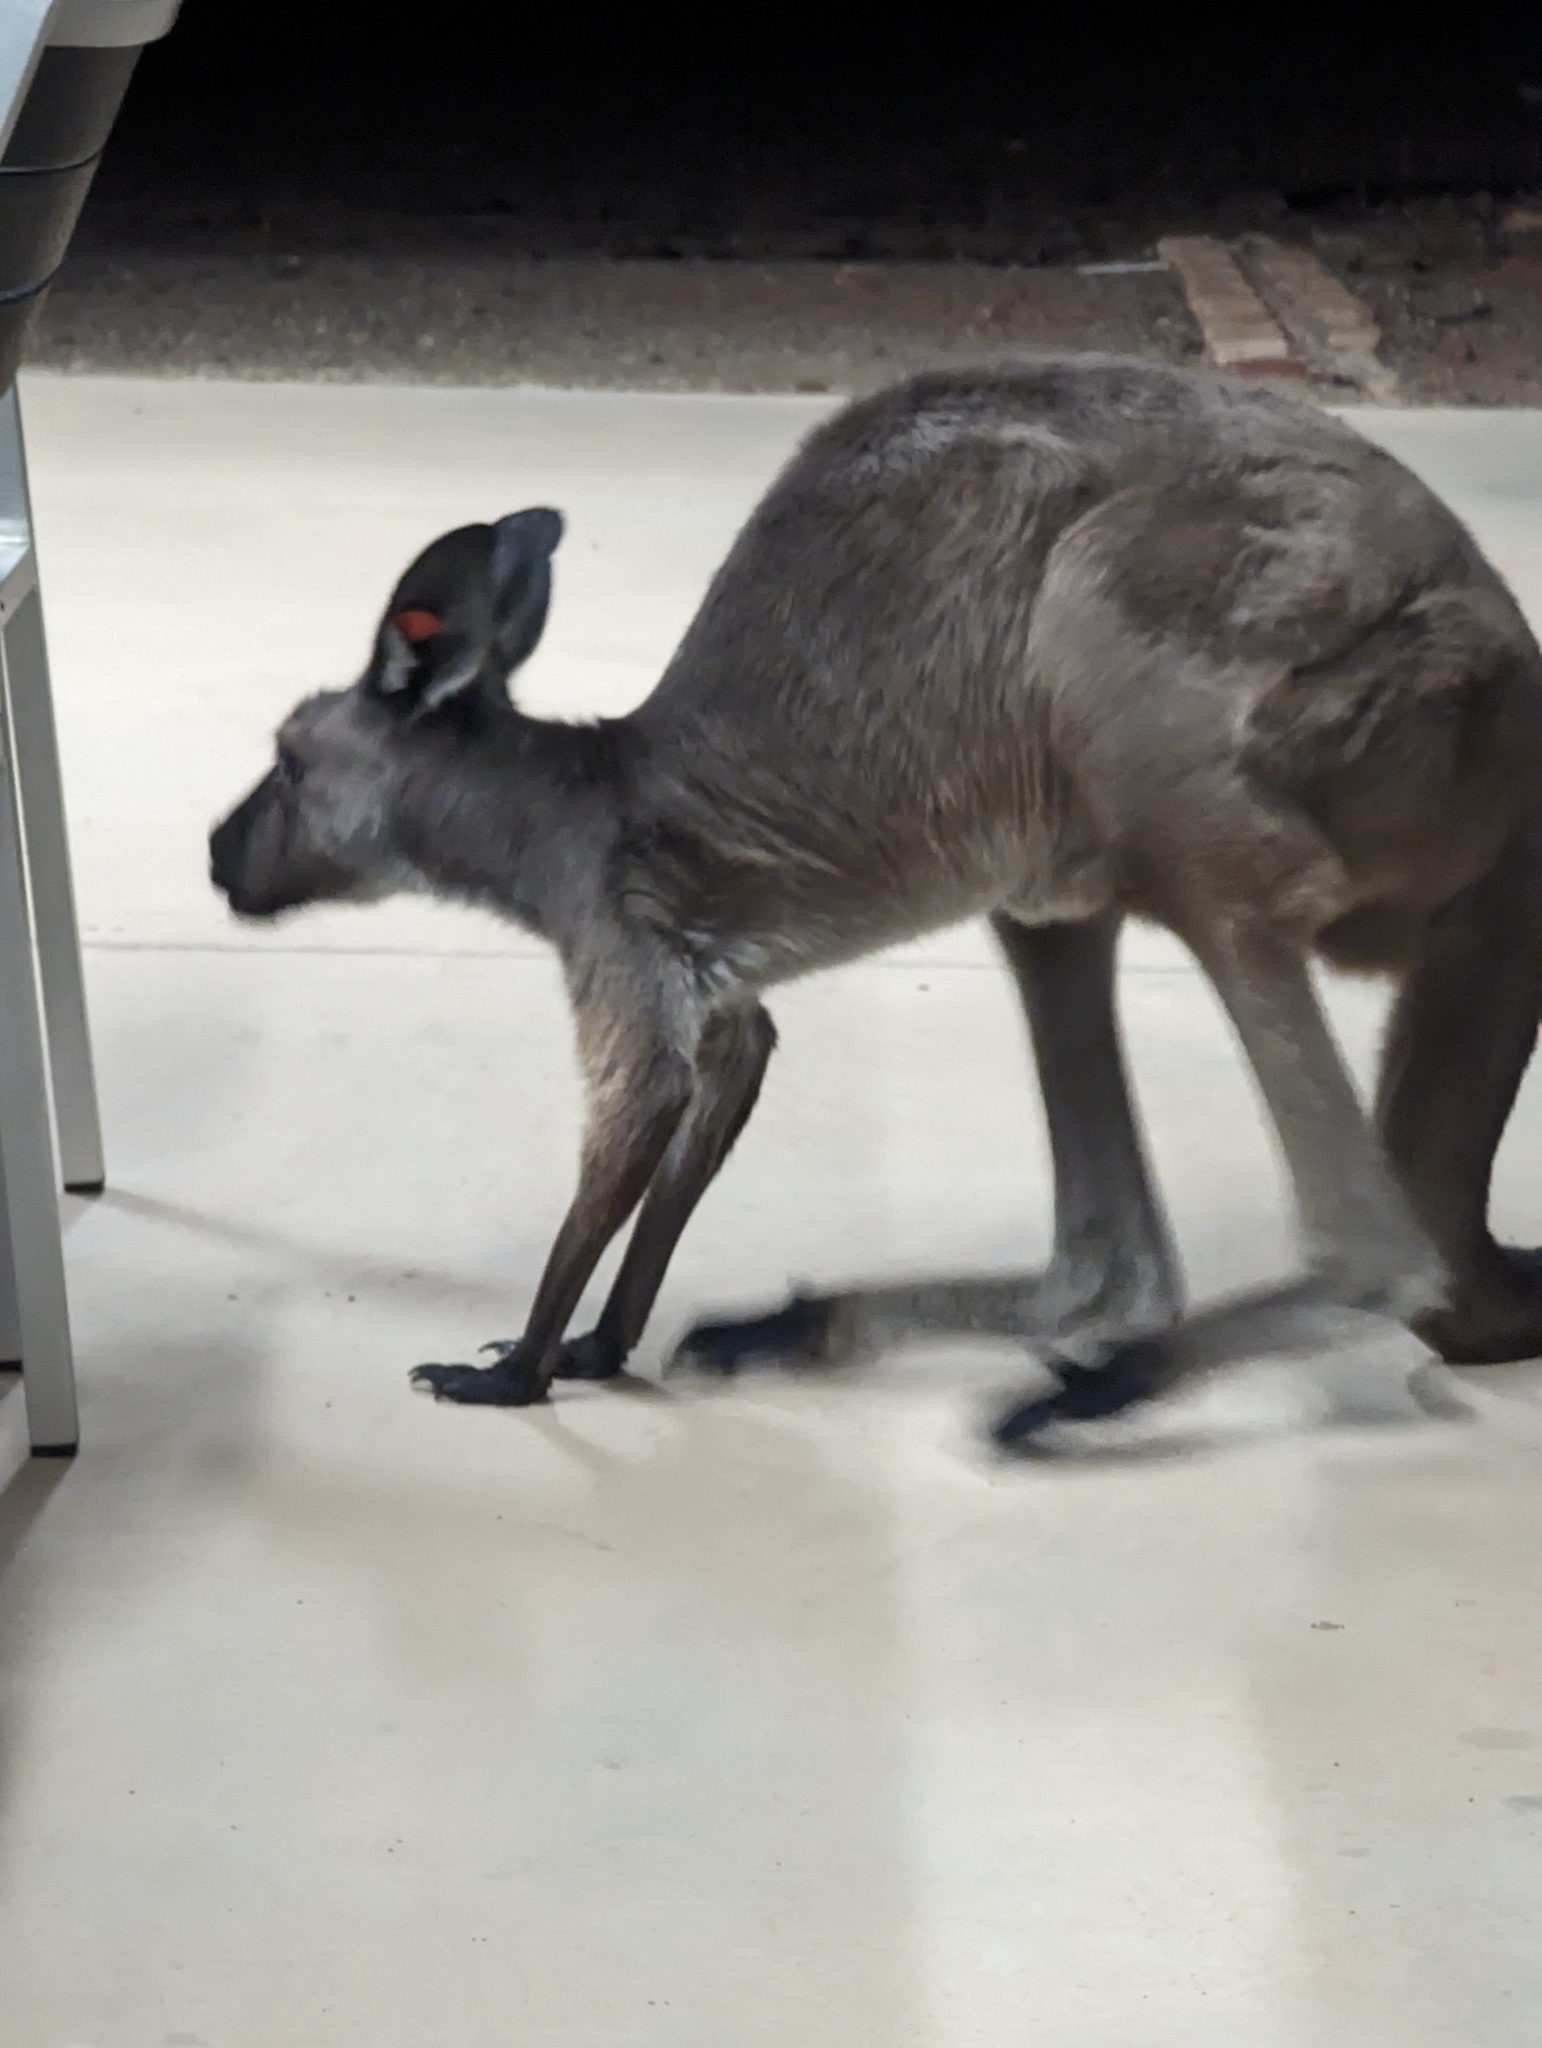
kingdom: Animalia
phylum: Chordata
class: Mammalia
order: Diprotodontia
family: Macropodidae
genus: Macropus
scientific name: Macropus fuliginosus
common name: Western grey kangaroo
